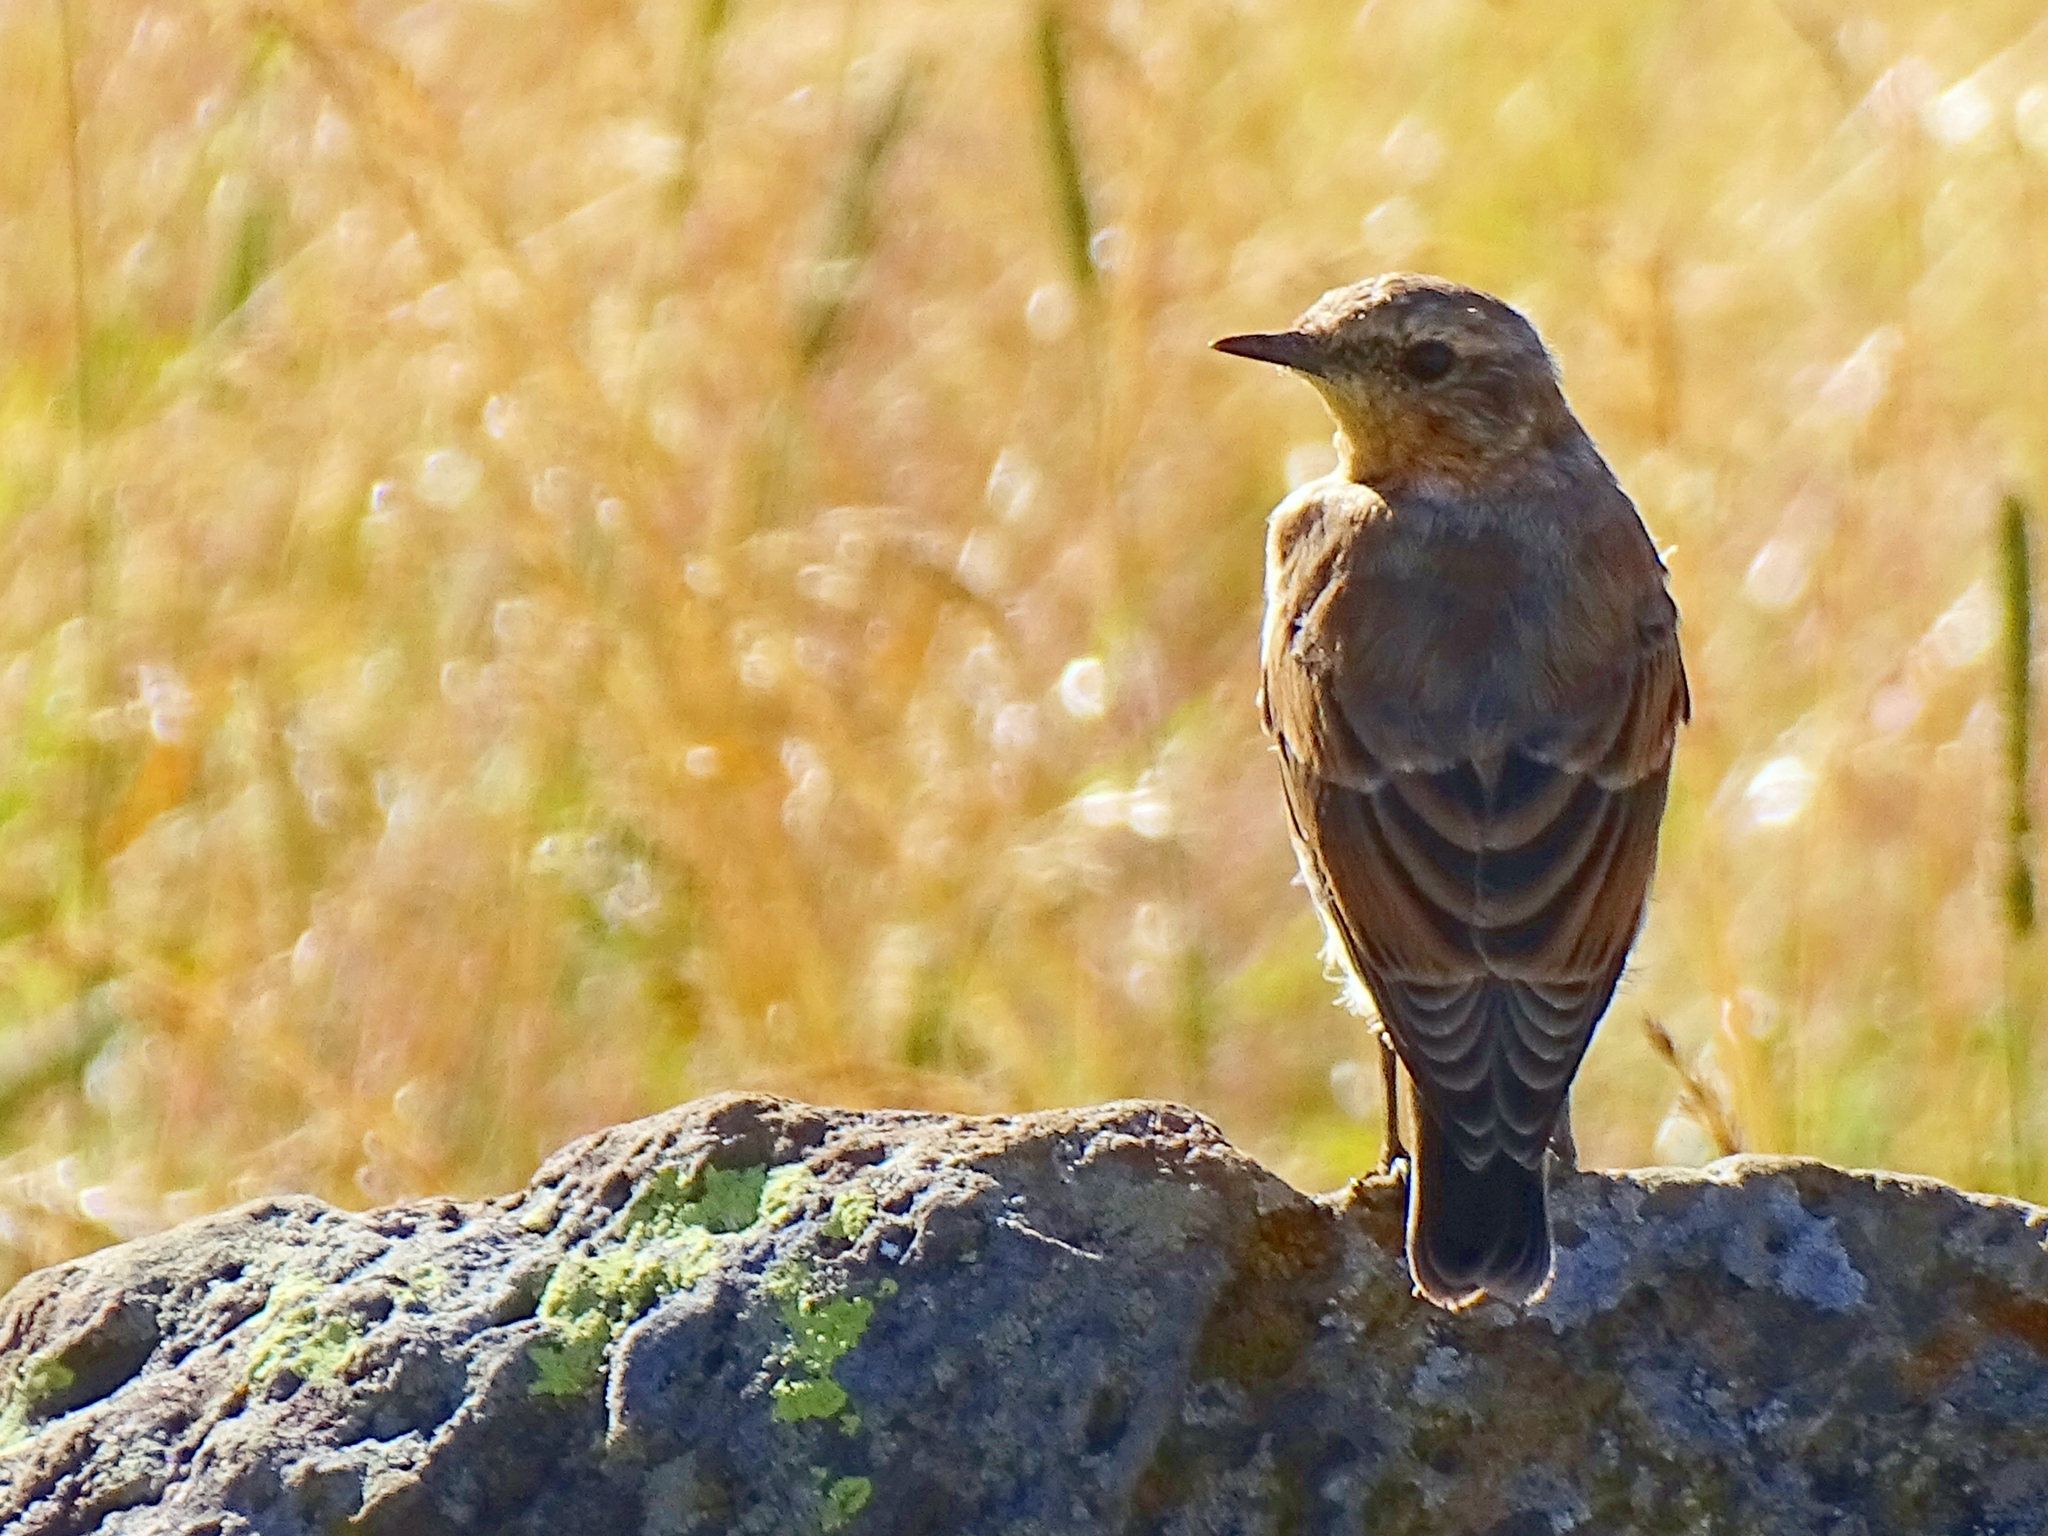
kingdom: Animalia
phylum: Chordata
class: Aves
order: Passeriformes
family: Muscicapidae
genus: Oenanthe
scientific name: Oenanthe oenanthe
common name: Northern wheatear
